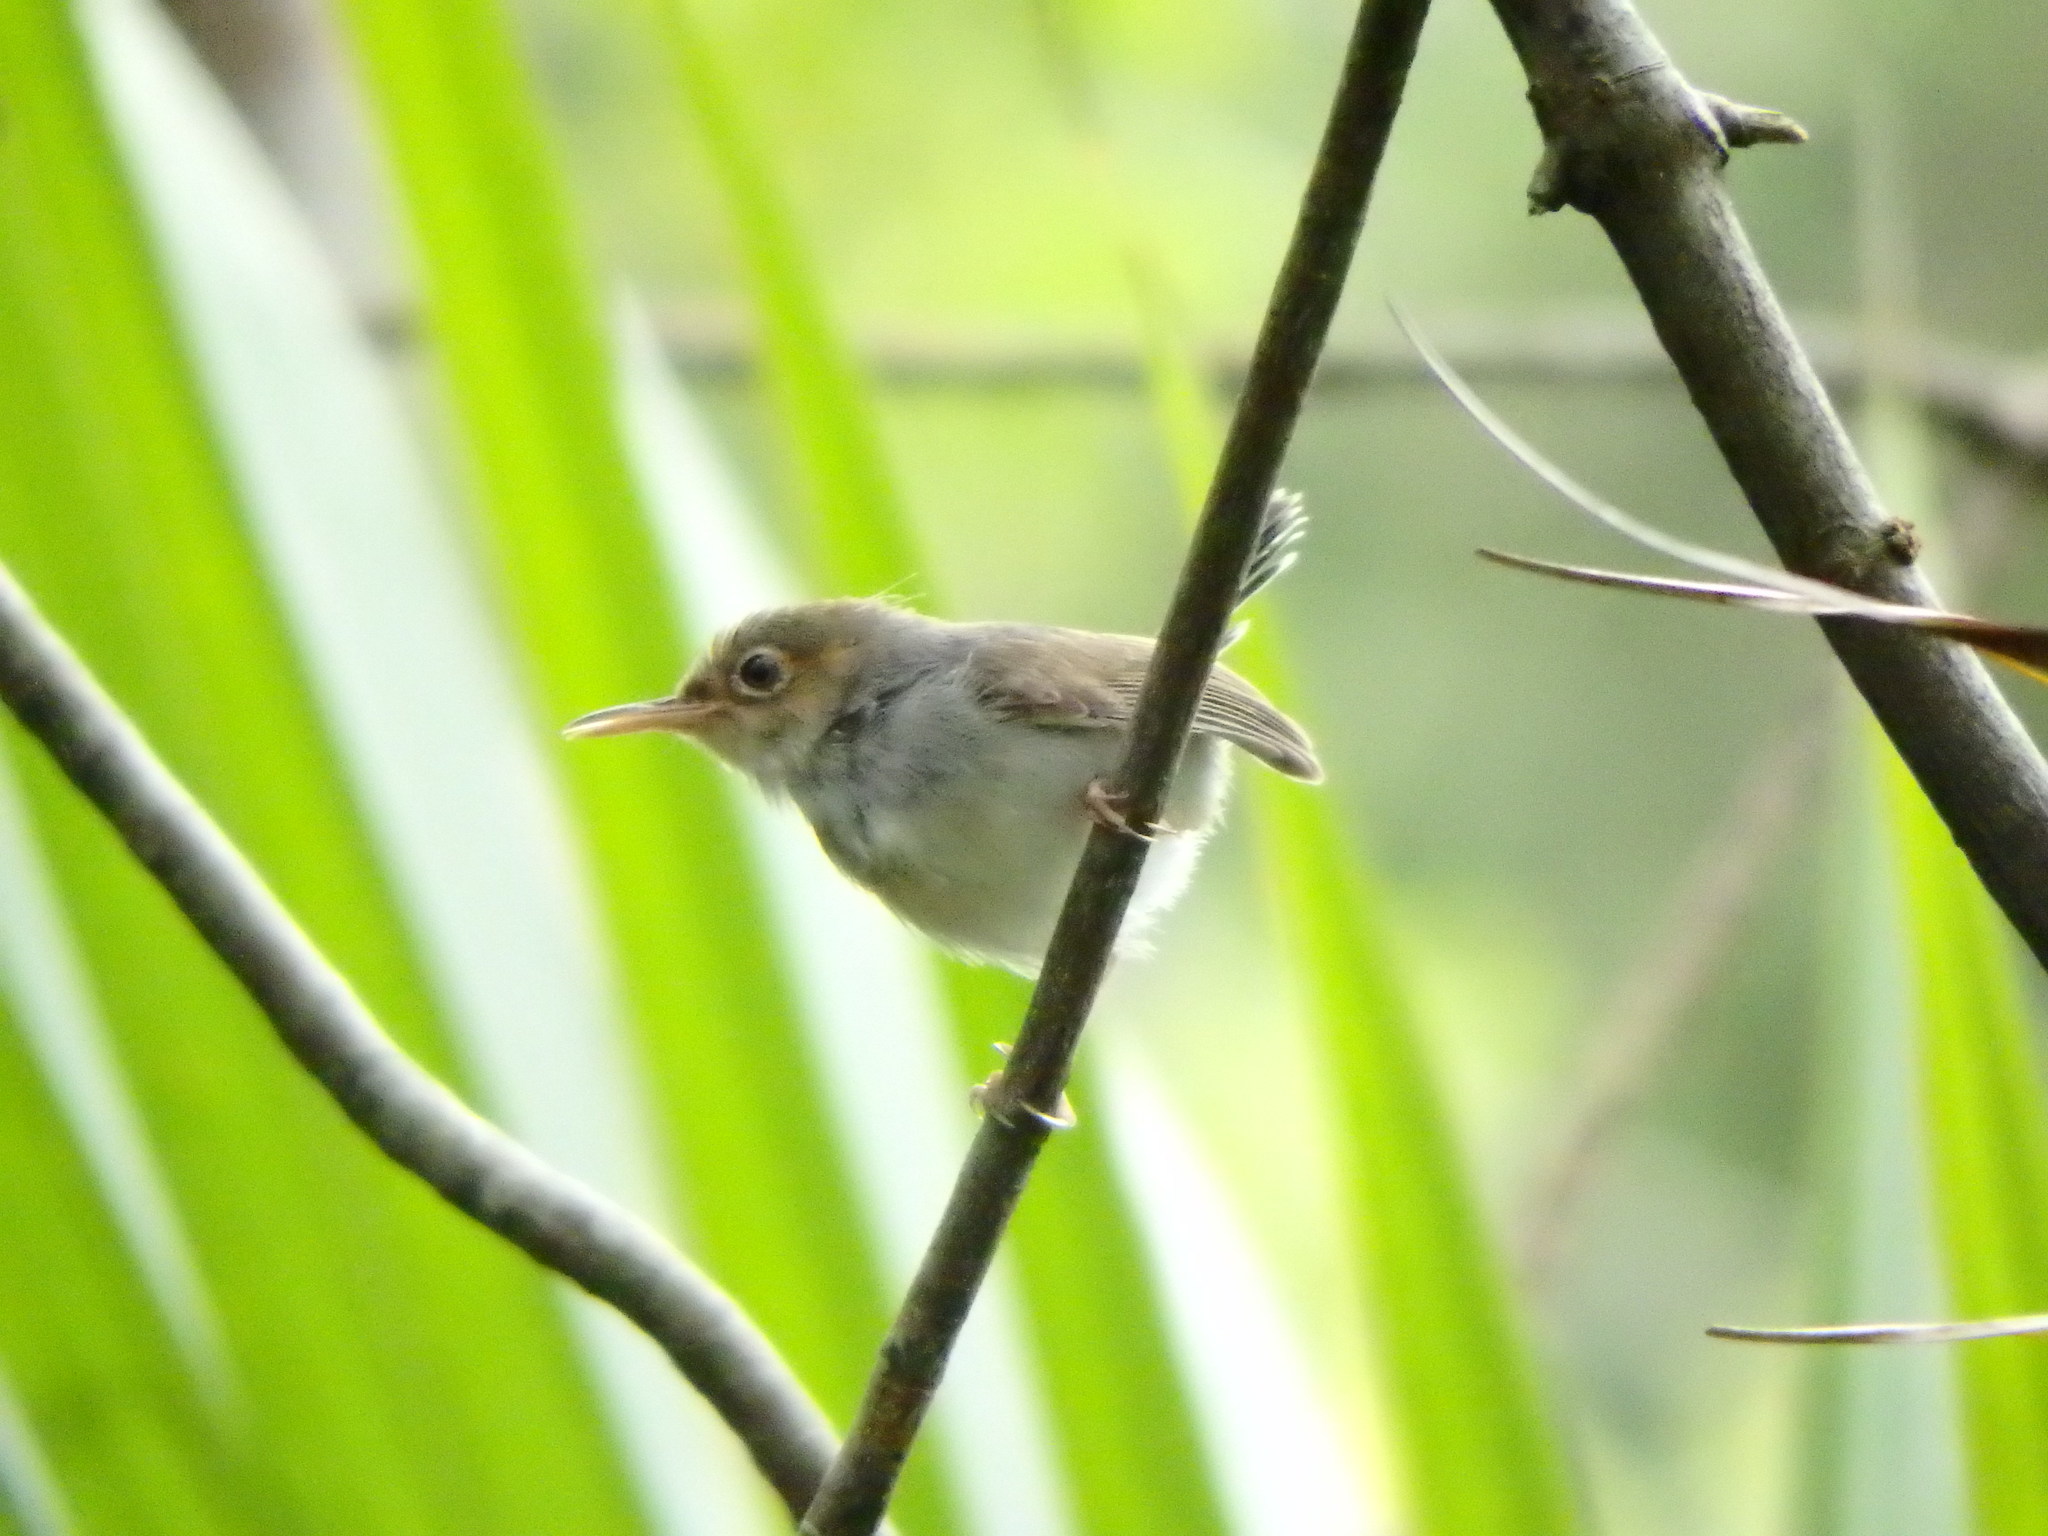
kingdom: Animalia
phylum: Chordata
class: Aves
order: Passeriformes
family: Cisticolidae
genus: Orthotomus
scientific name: Orthotomus ruficeps
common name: Ashy tailorbird
